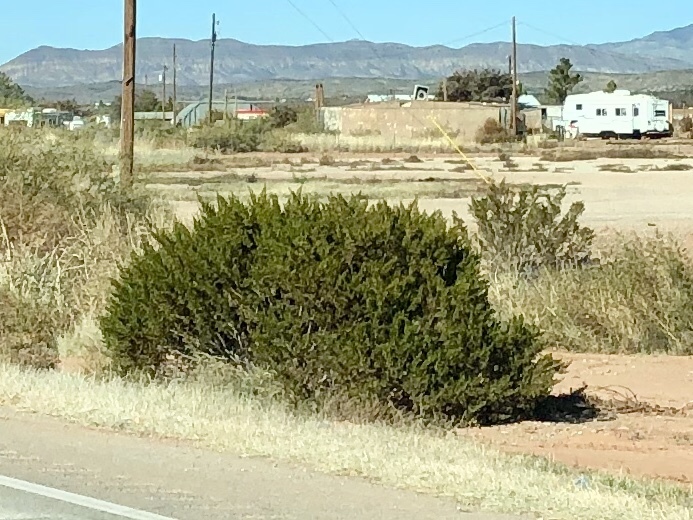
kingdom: Plantae
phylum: Tracheophyta
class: Magnoliopsida
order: Zygophyllales
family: Zygophyllaceae
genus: Larrea
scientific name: Larrea tridentata
